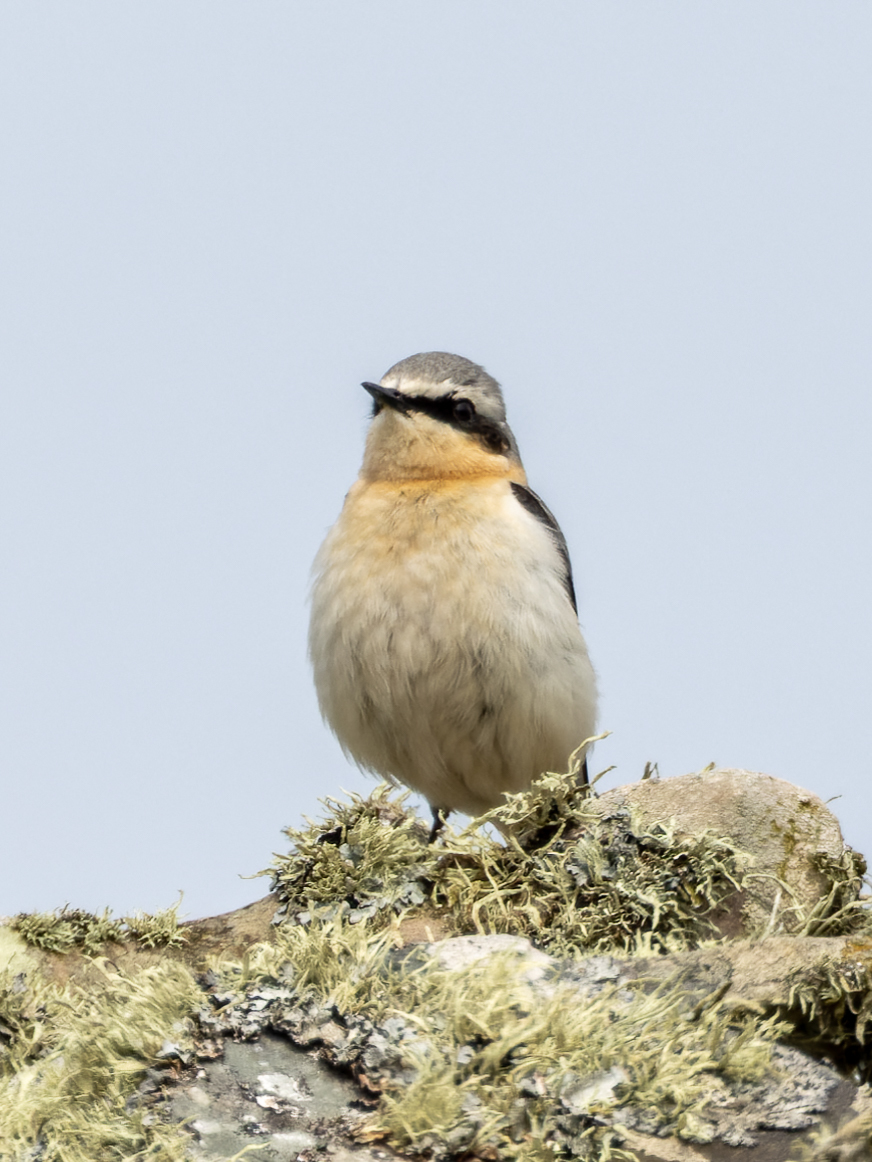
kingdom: Animalia
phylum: Chordata
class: Aves
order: Passeriformes
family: Muscicapidae
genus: Oenanthe
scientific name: Oenanthe oenanthe
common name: Northern wheatear
